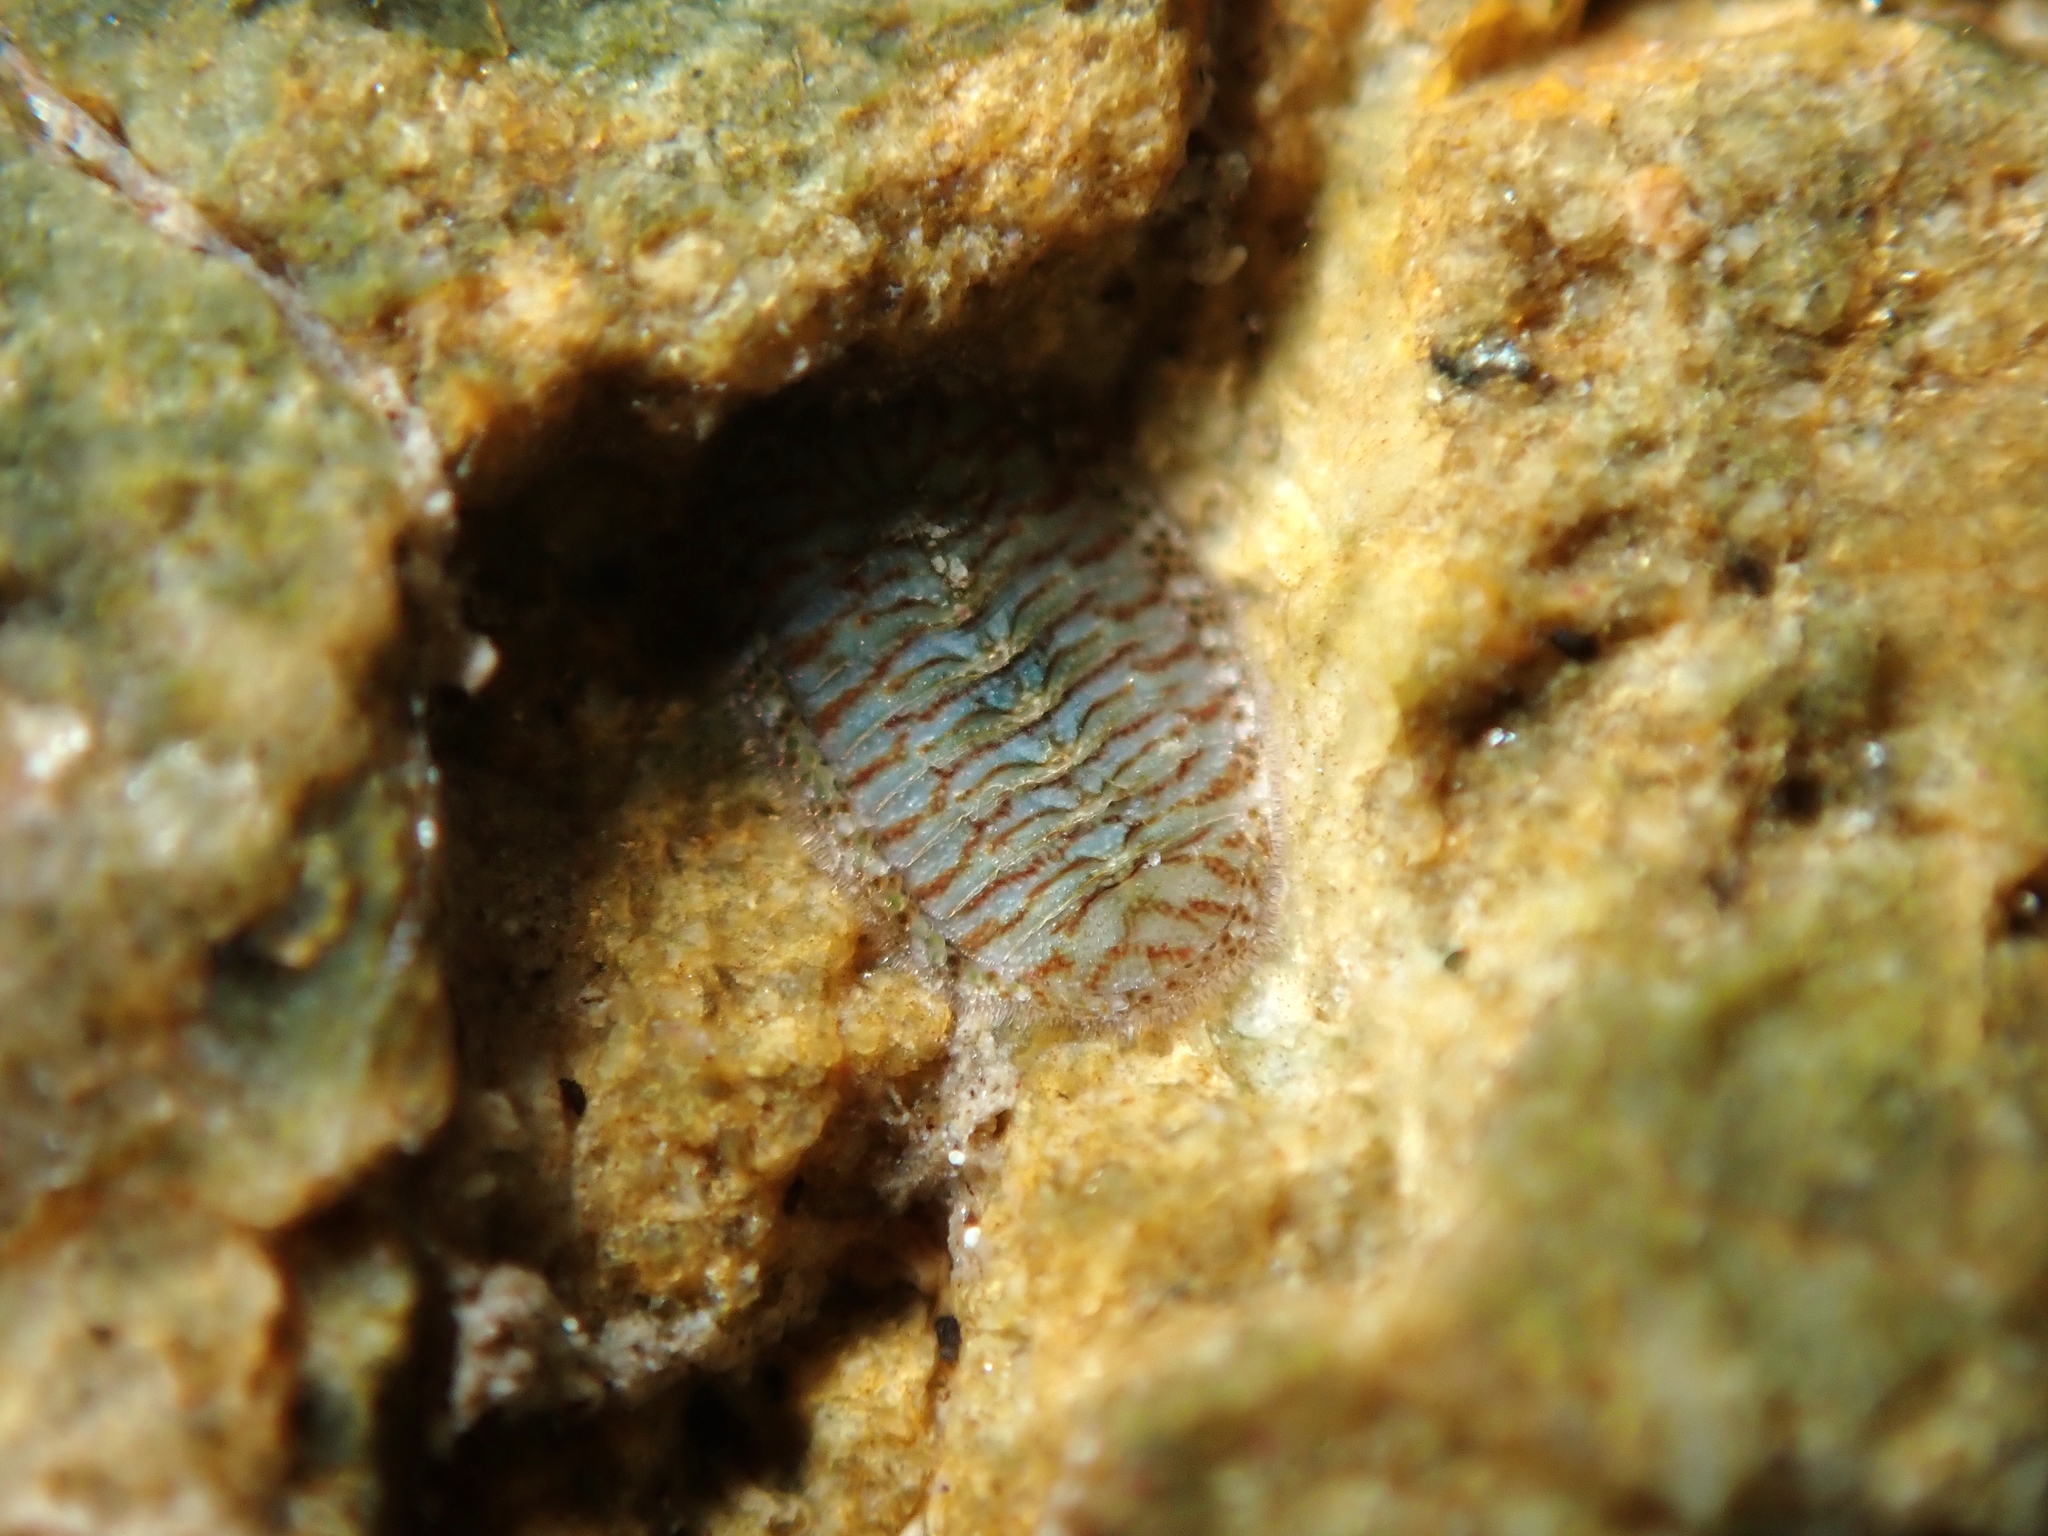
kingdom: Animalia
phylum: Mollusca
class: Polyplacophora
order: Chitonida
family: Chitonidae
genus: Chiton
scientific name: Chiton glaucus
